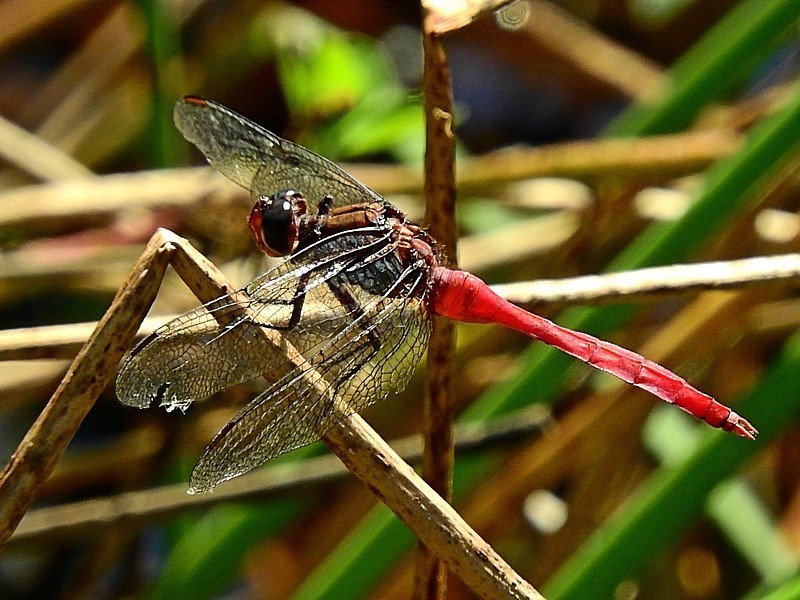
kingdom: Animalia
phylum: Arthropoda
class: Insecta
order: Odonata
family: Libellulidae
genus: Orthetrum
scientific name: Orthetrum villosovittatum
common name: Firery skimmer
